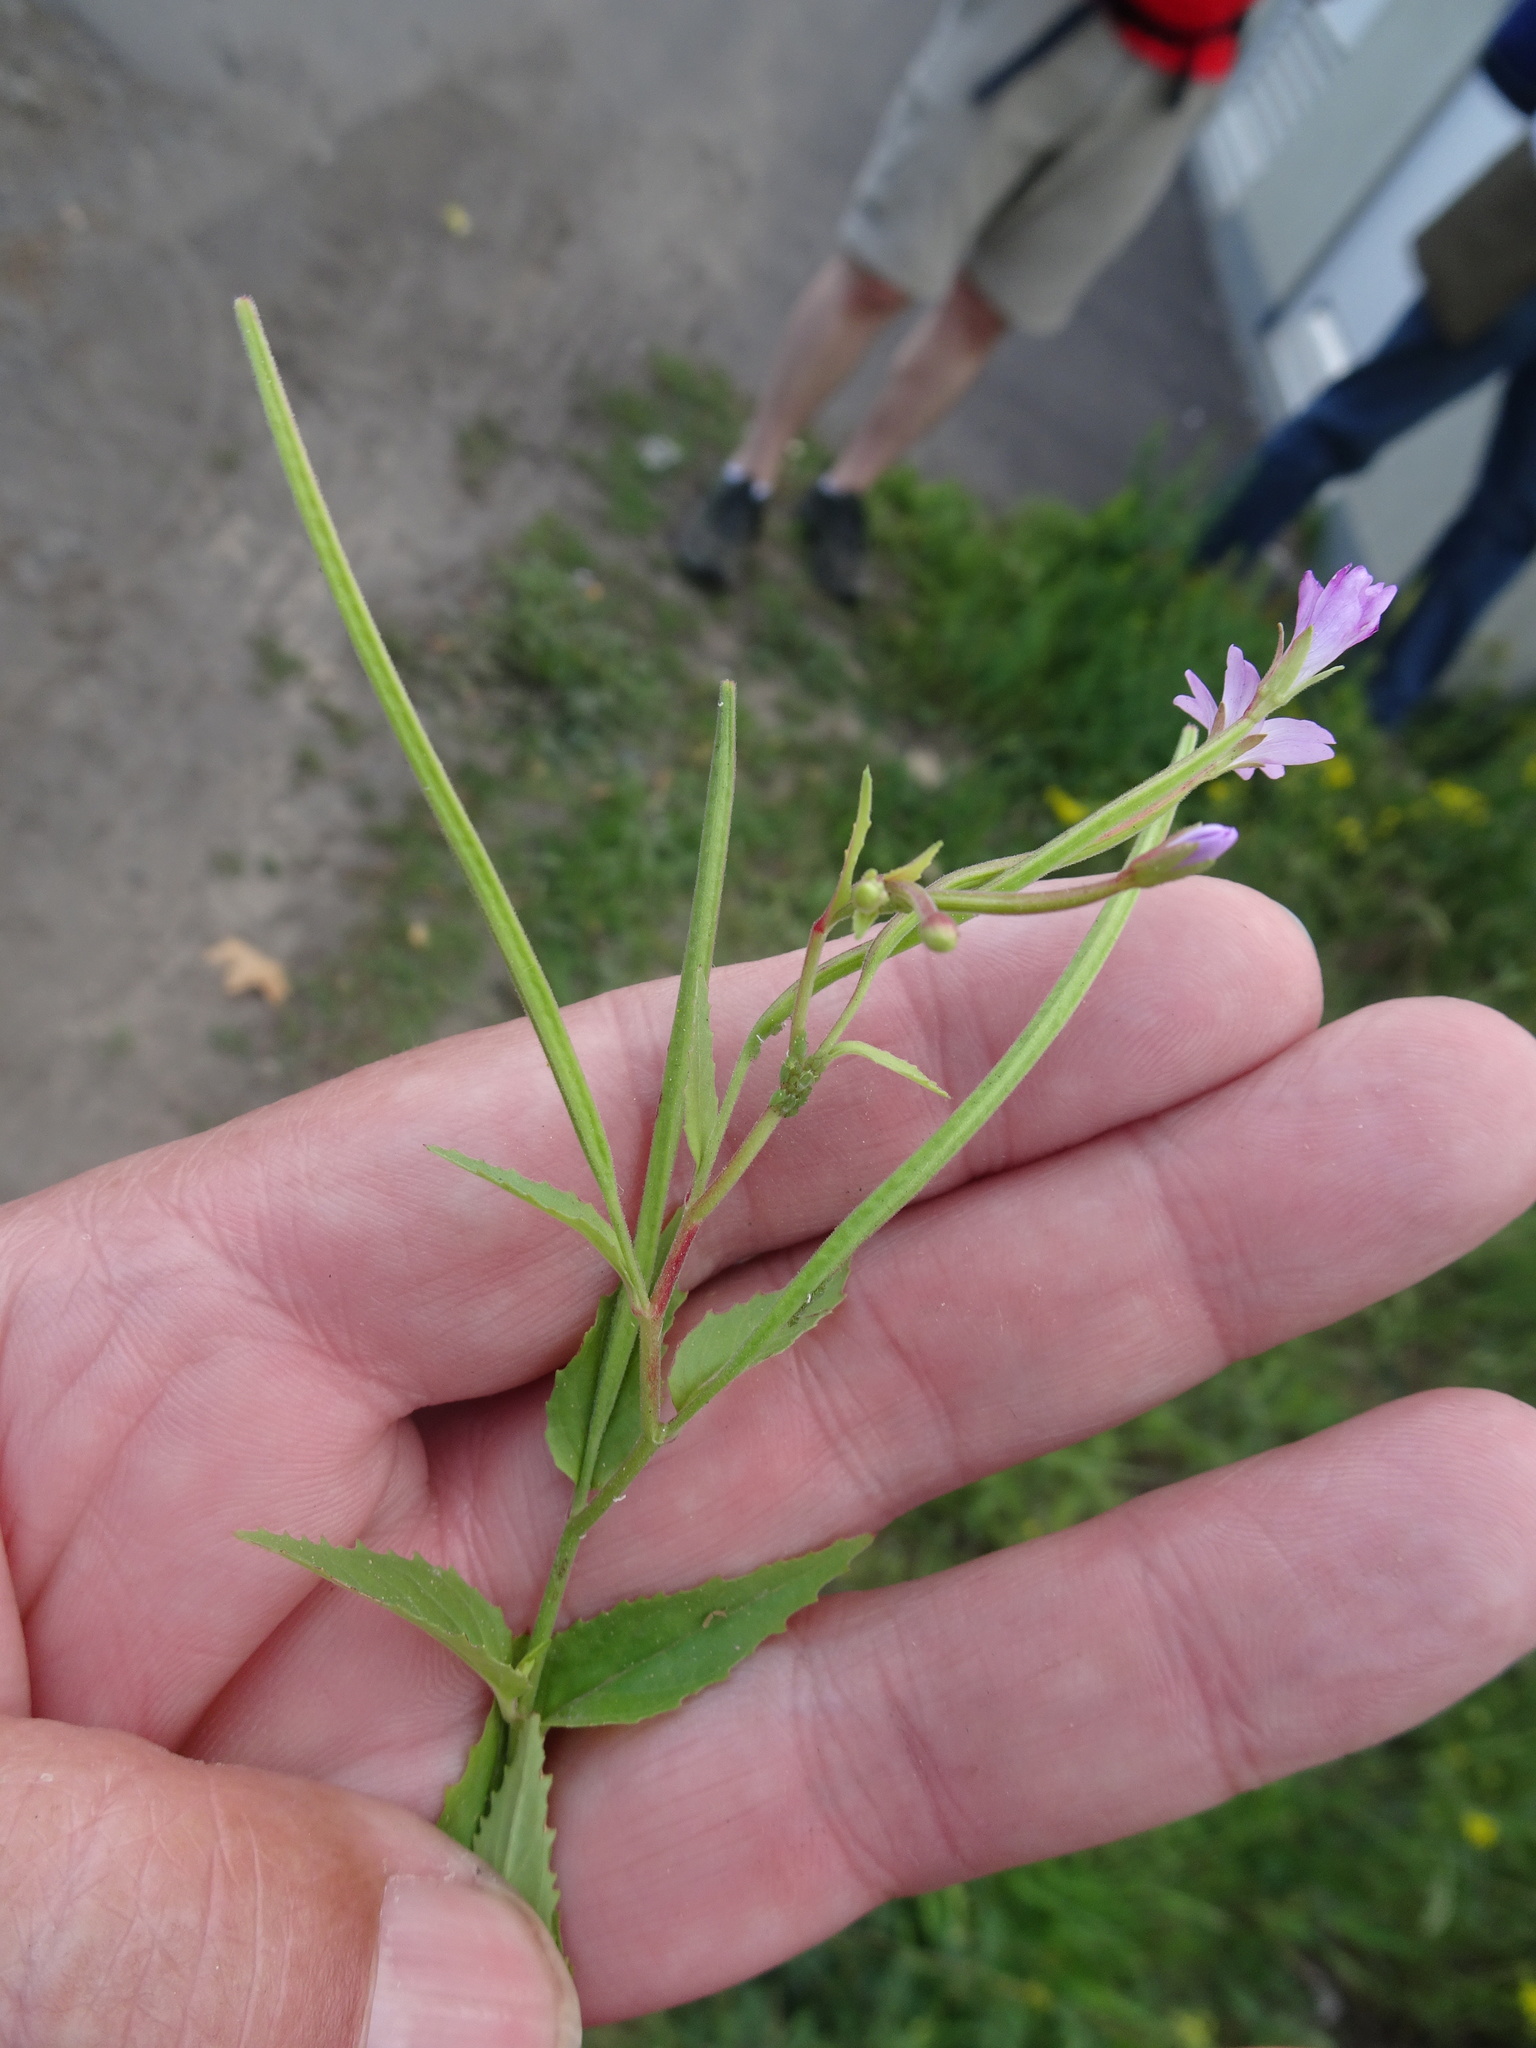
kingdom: Plantae
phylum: Tracheophyta
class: Magnoliopsida
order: Myrtales
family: Onagraceae
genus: Epilobium
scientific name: Epilobium montanum
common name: Broad-leaved willowherb
